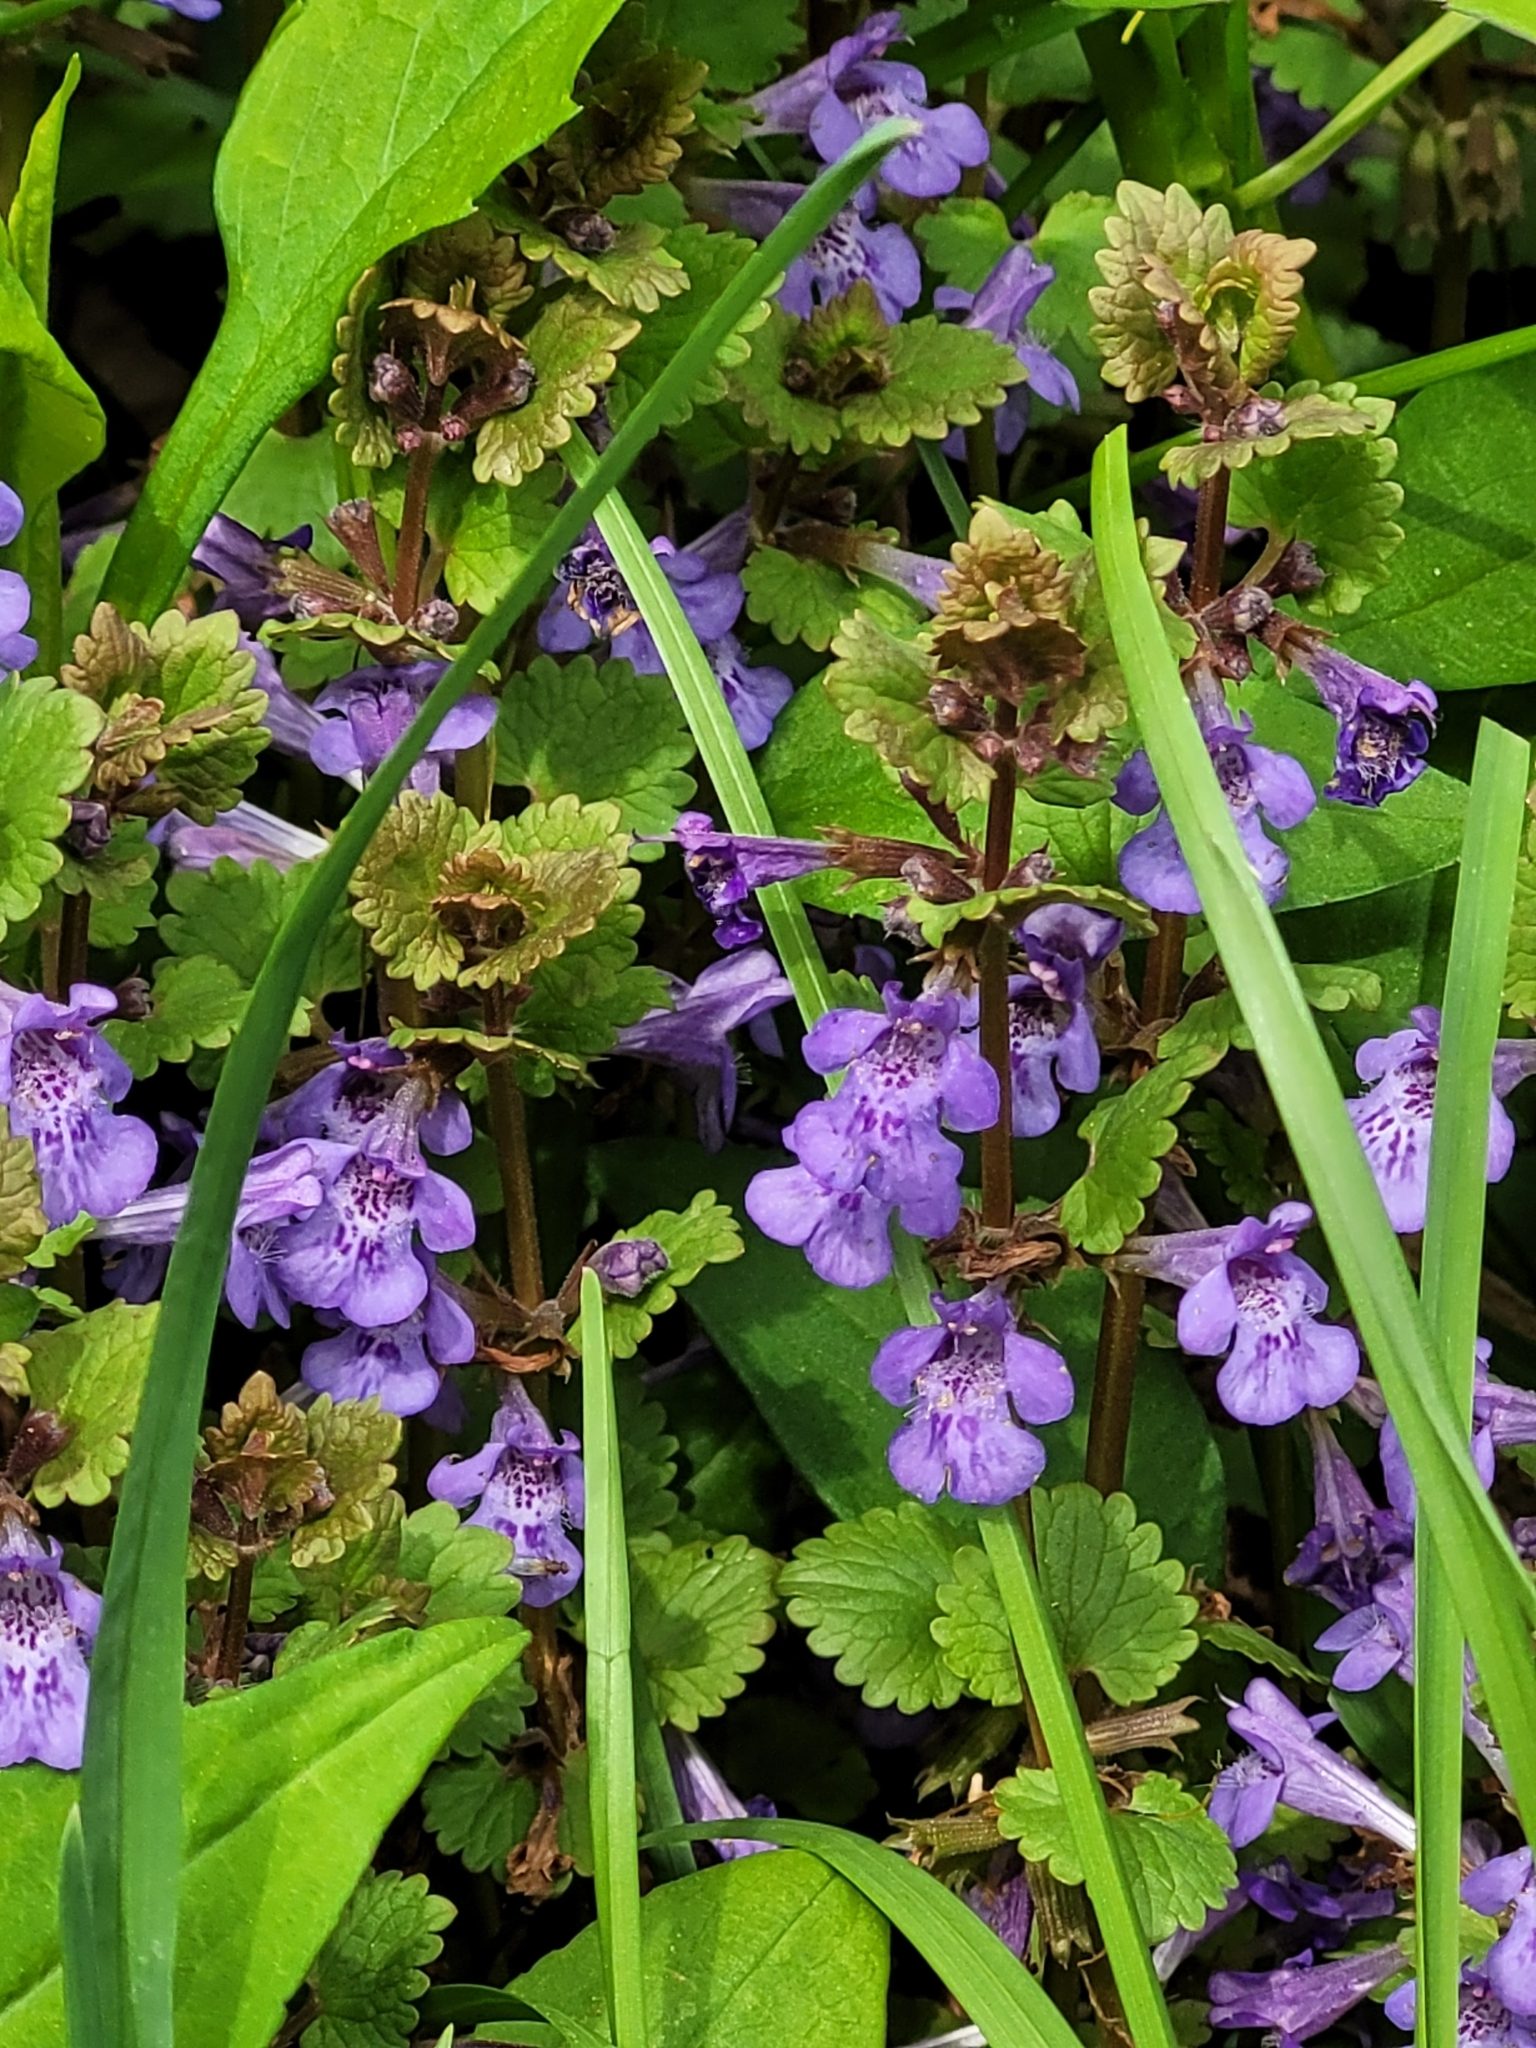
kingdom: Plantae
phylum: Tracheophyta
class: Magnoliopsida
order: Lamiales
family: Lamiaceae
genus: Glechoma
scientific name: Glechoma hederacea
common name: Ground ivy
